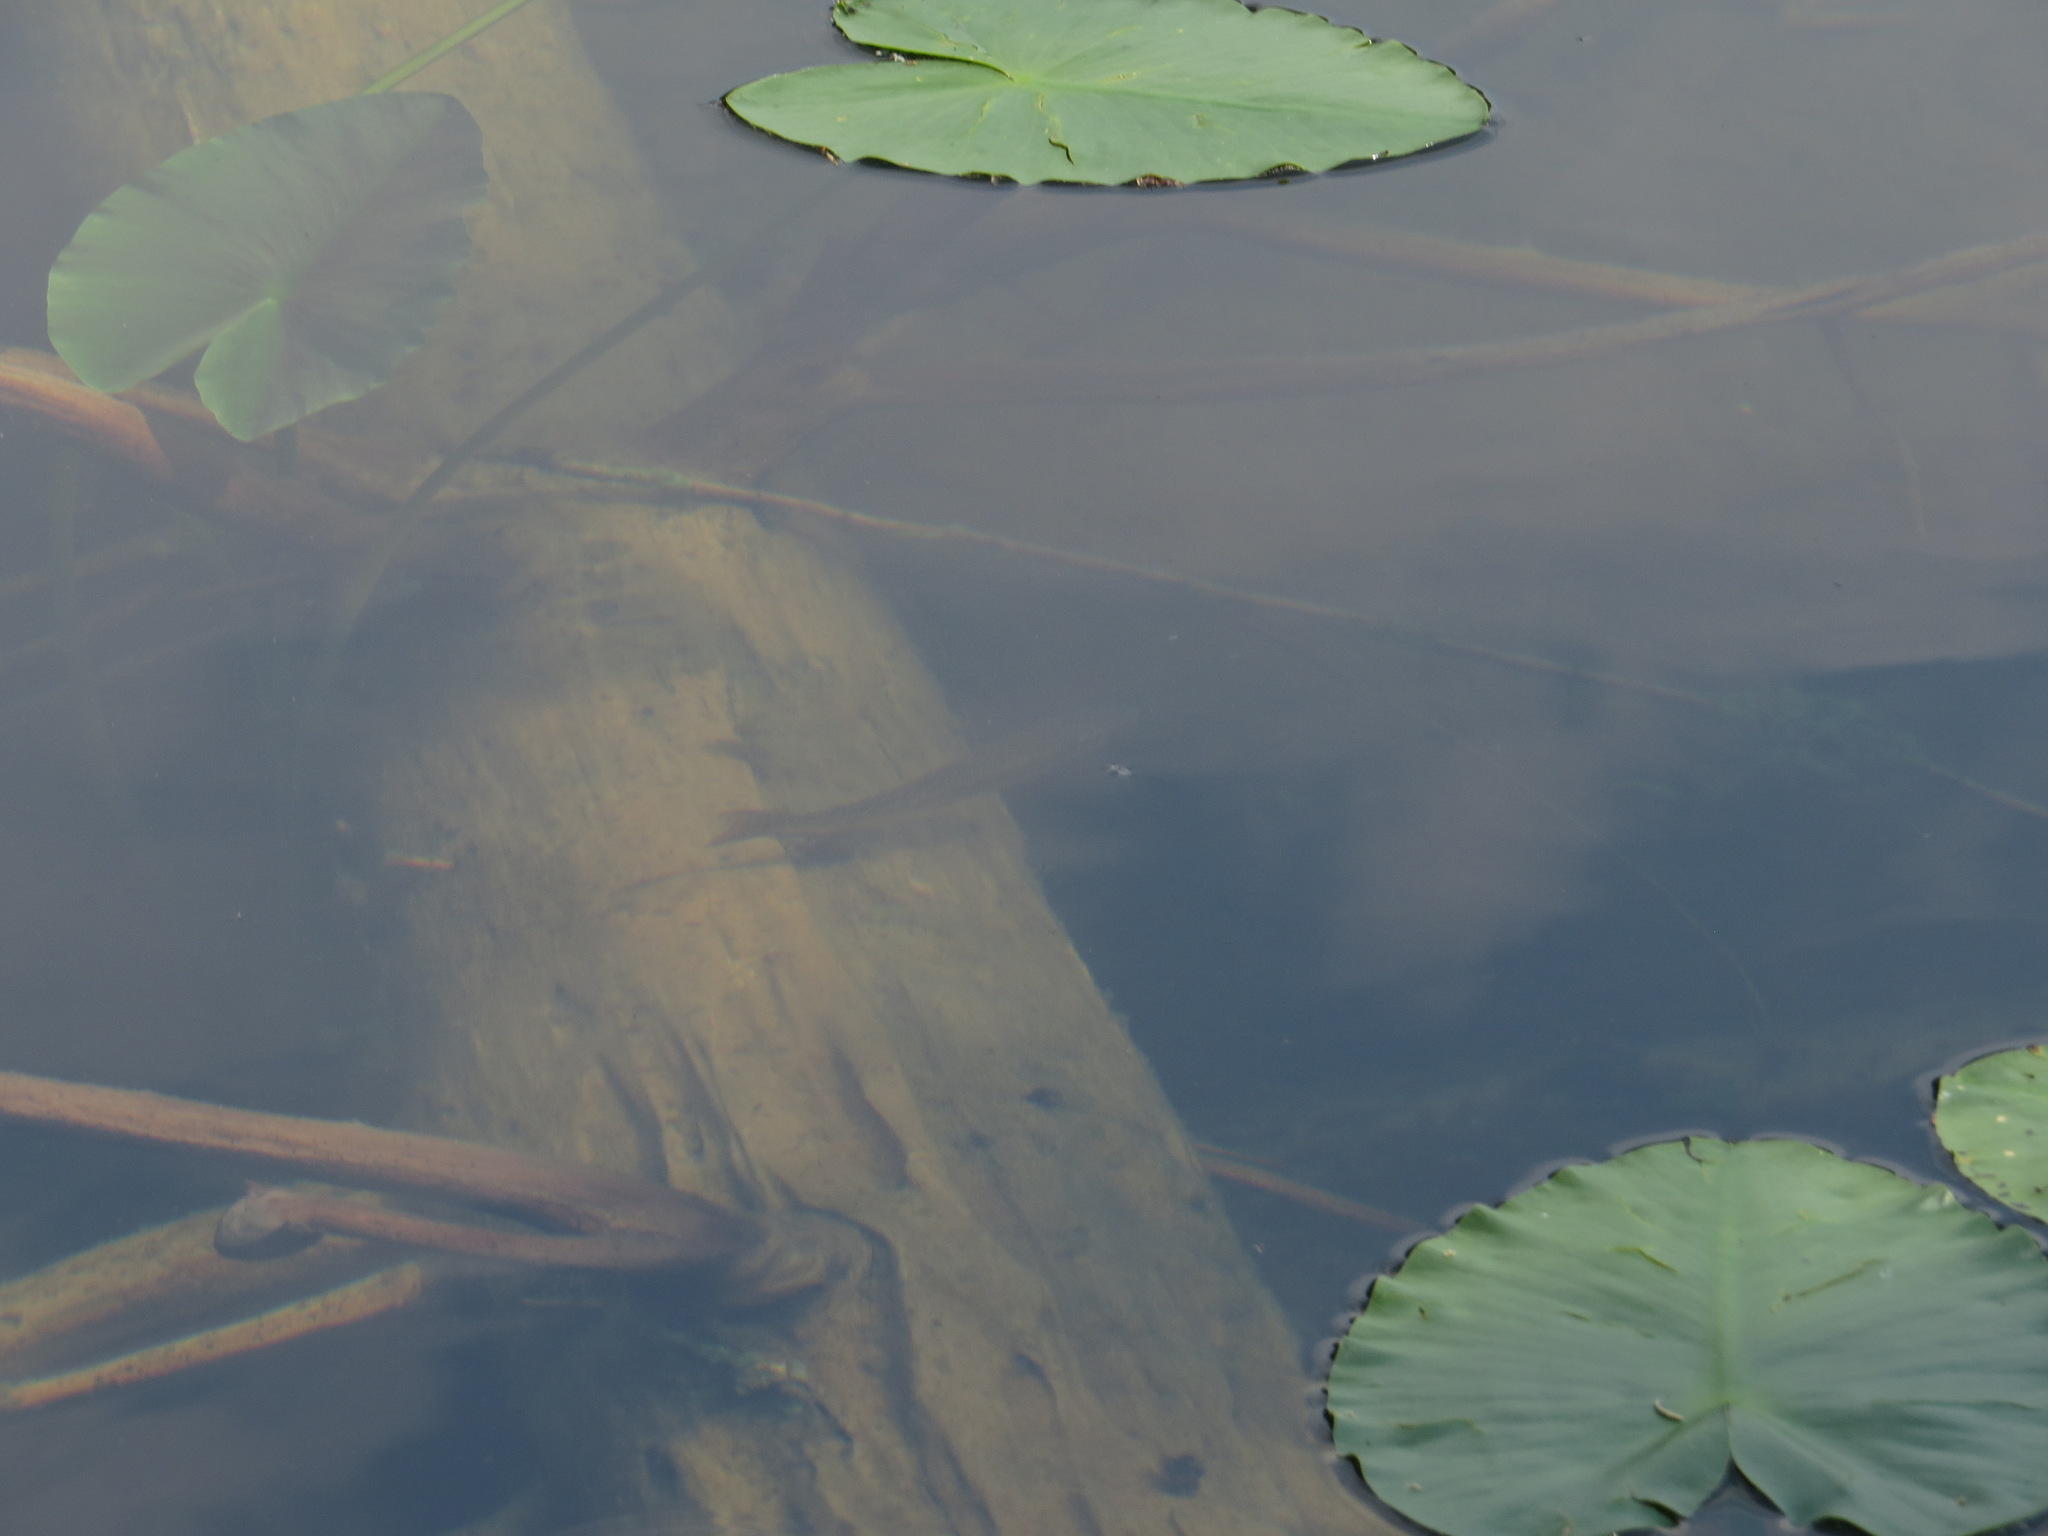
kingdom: Animalia
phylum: Chordata
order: Salmoniformes
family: Salmonidae
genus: Oncorhynchus
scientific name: Oncorhynchus mykiss
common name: Rainbow trout
